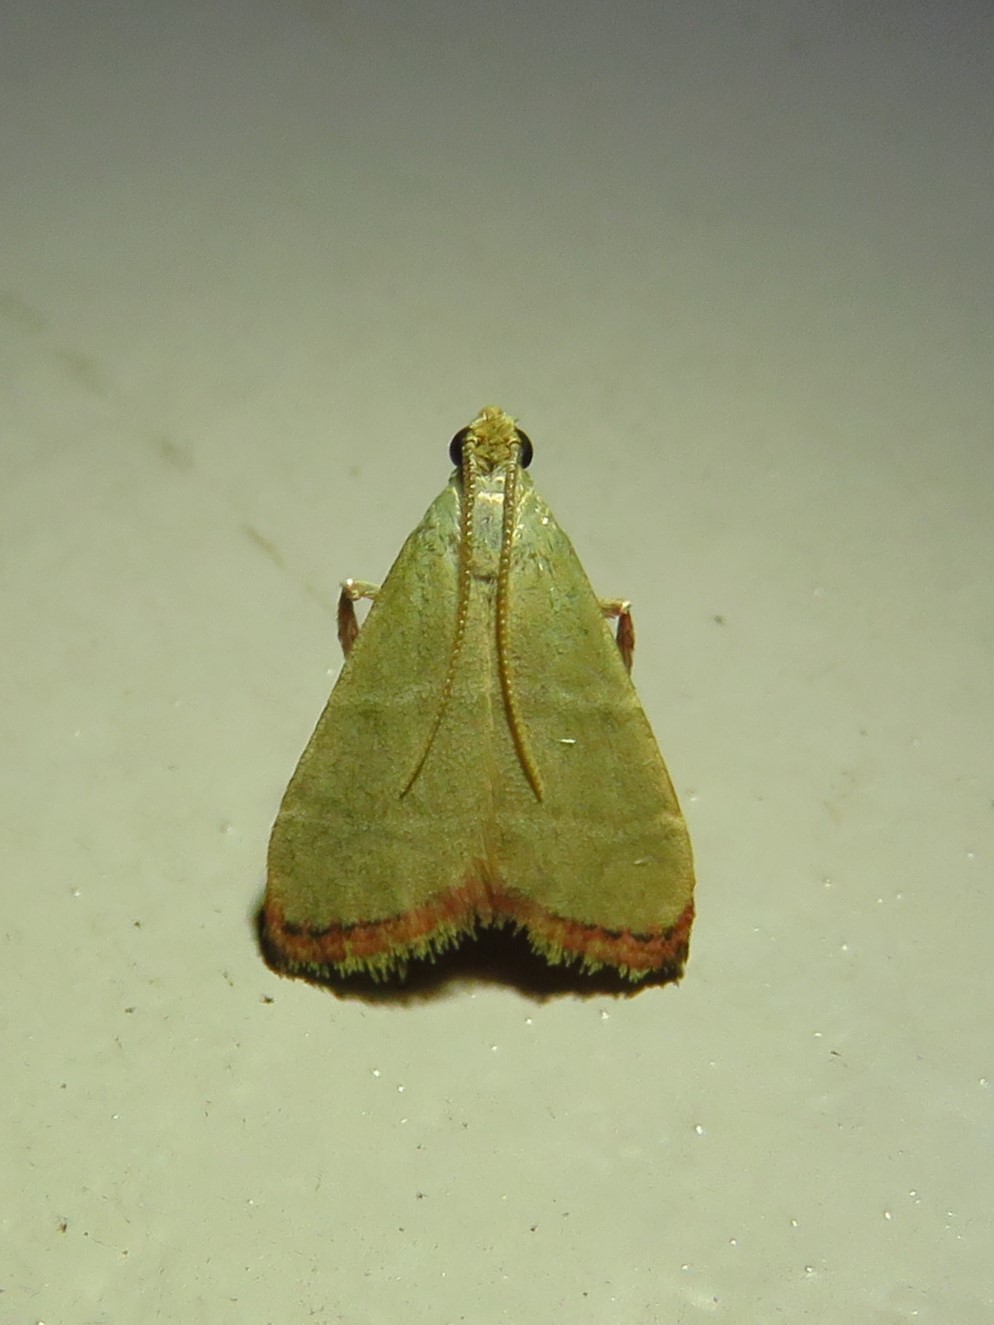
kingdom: Animalia
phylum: Arthropoda
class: Insecta
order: Lepidoptera
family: Pyralidae
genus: Arta
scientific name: Arta olivalis
